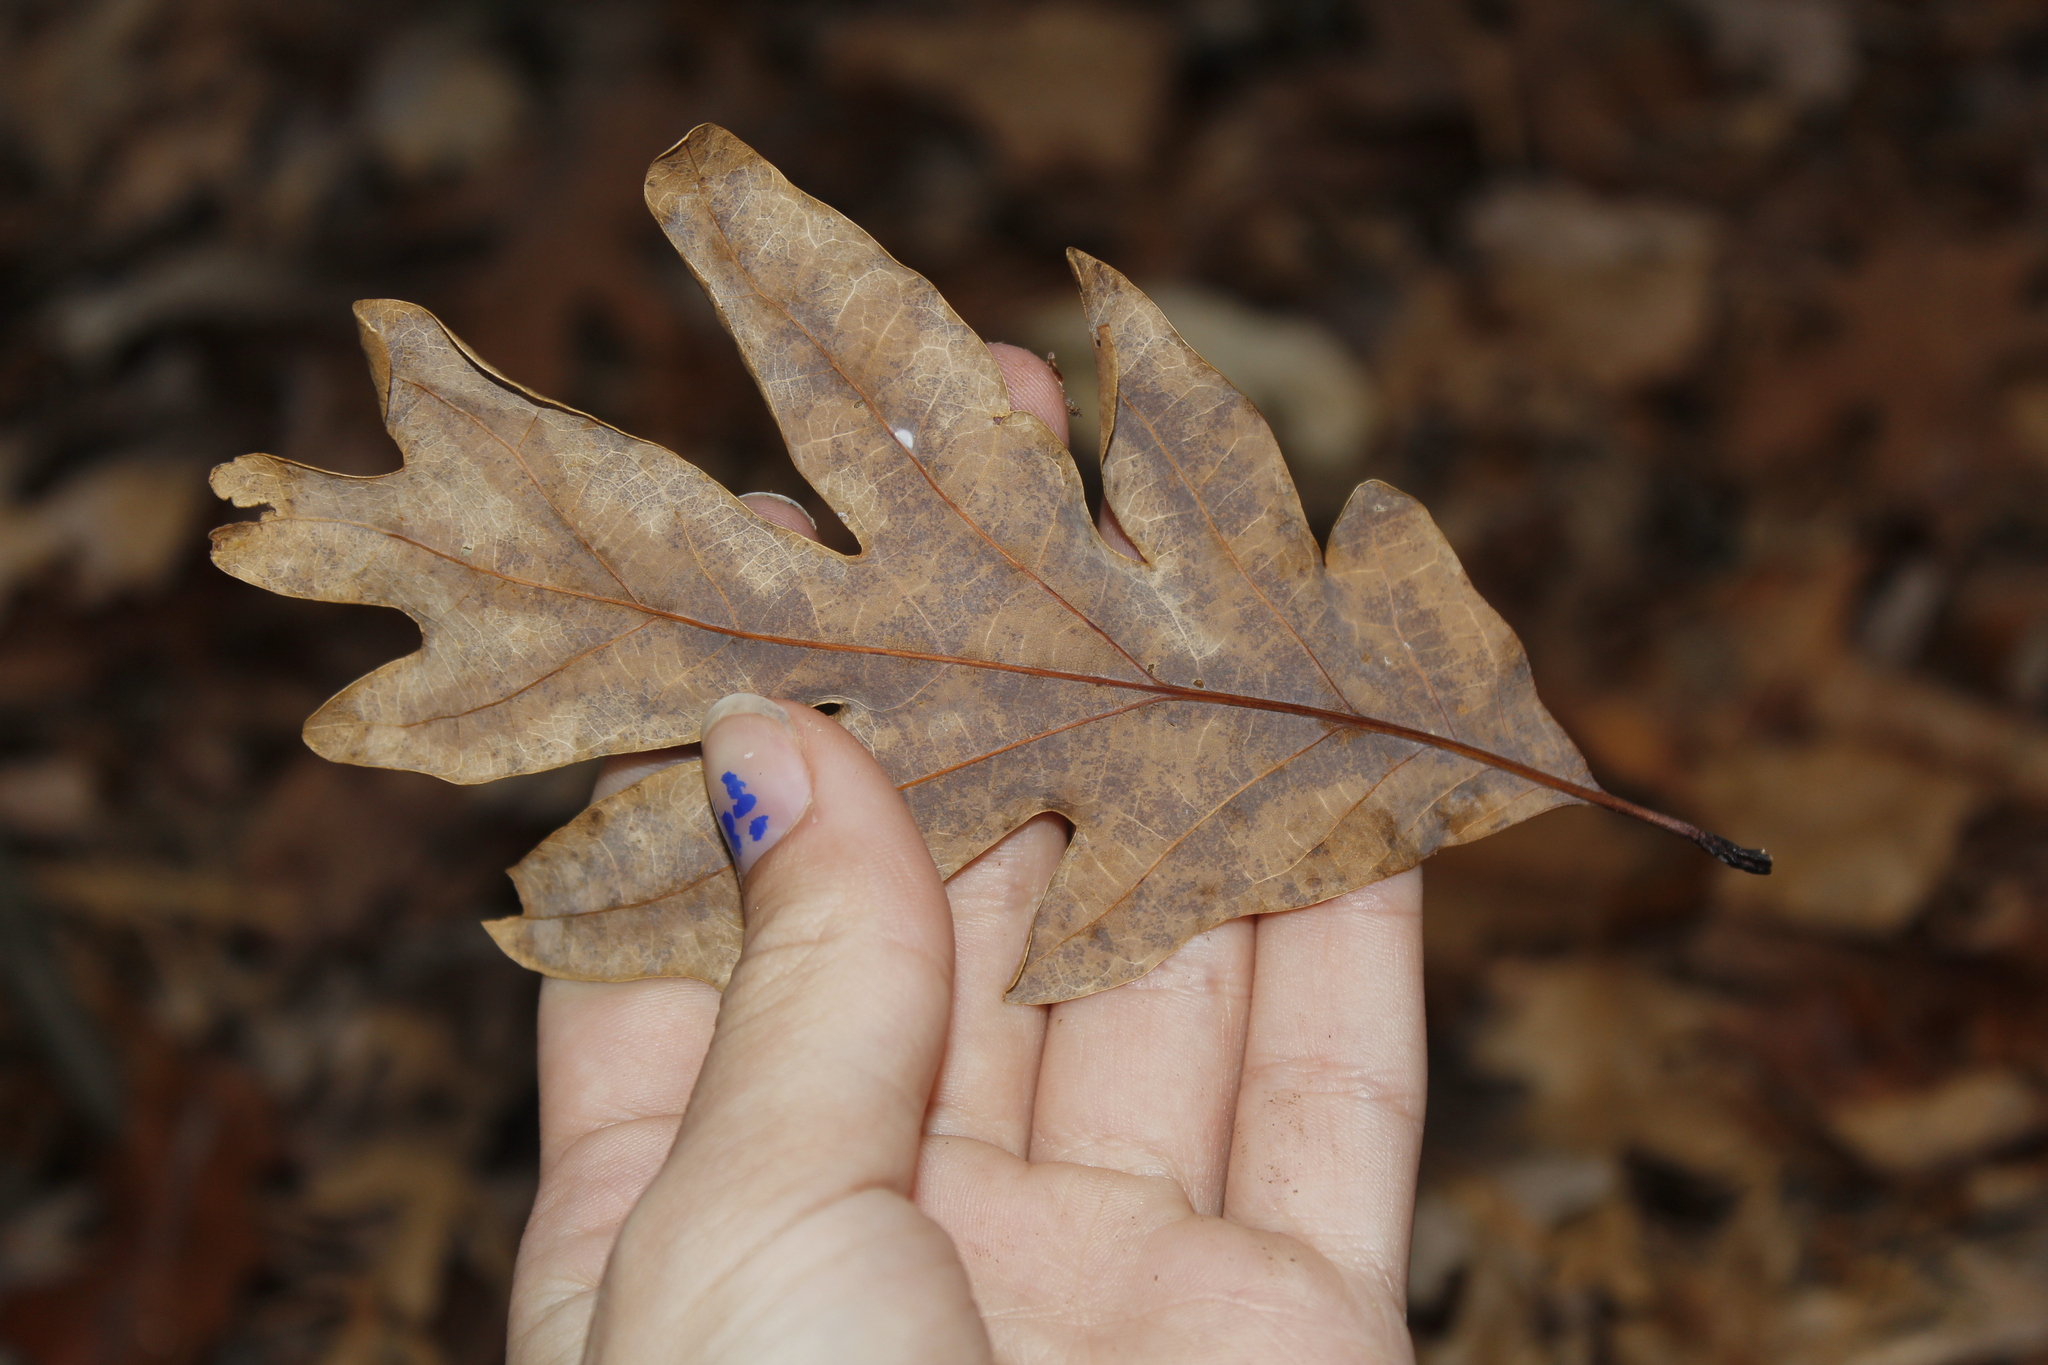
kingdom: Plantae
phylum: Tracheophyta
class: Magnoliopsida
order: Fagales
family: Fagaceae
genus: Quercus
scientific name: Quercus alba
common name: White oak
